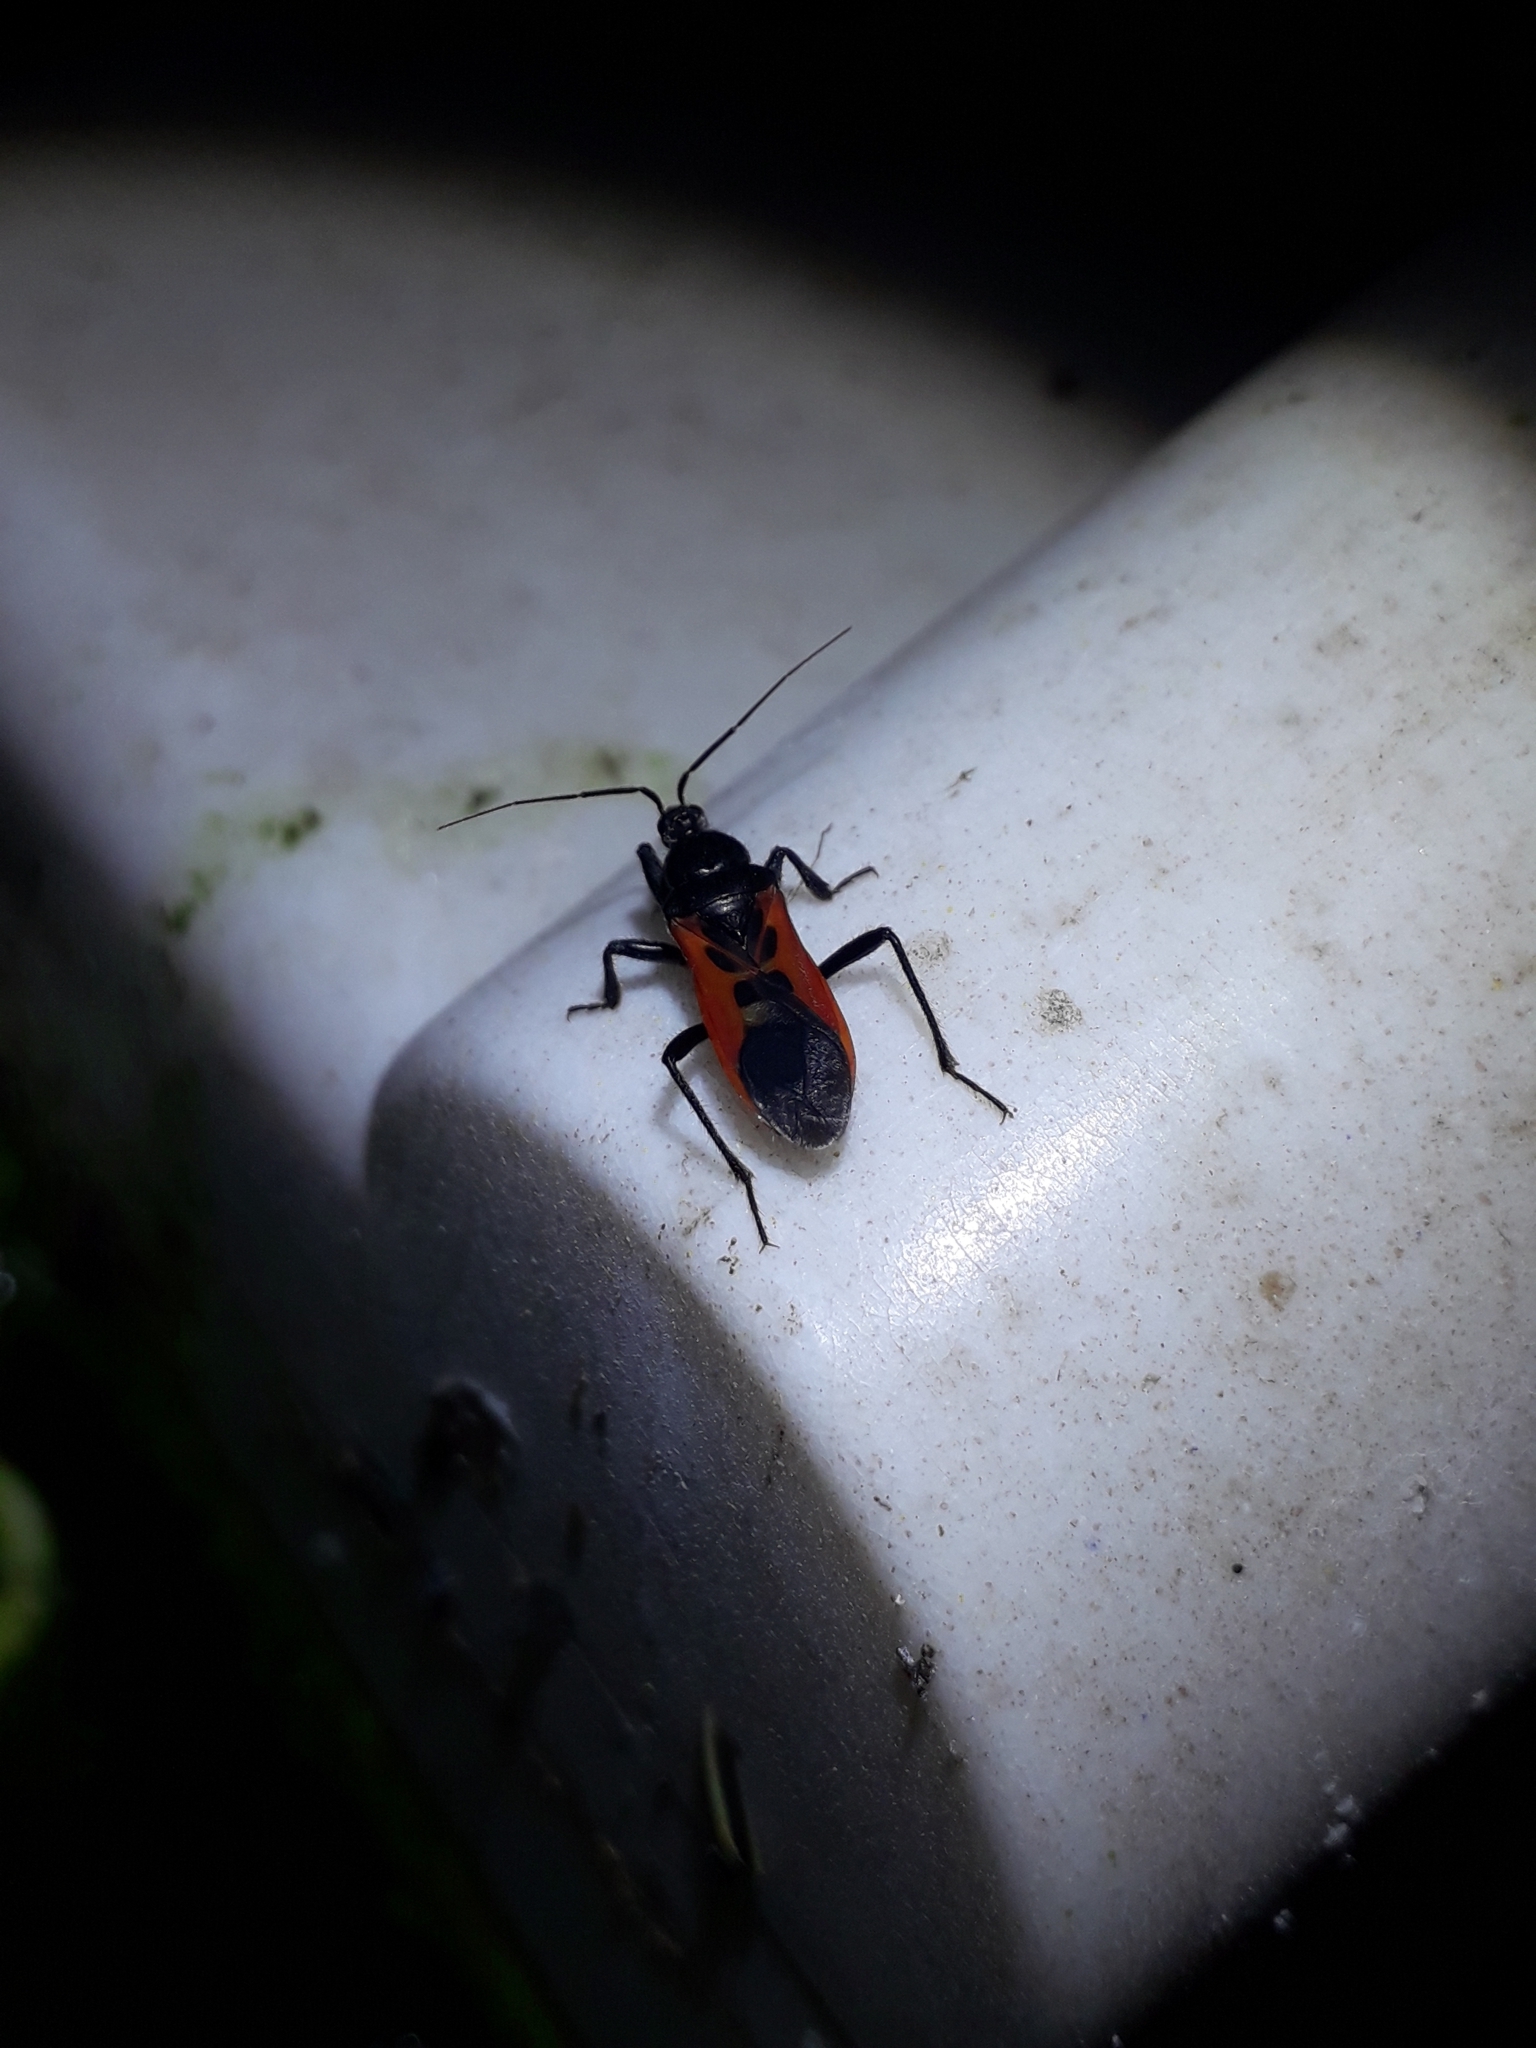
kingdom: Animalia
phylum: Arthropoda
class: Insecta
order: Hemiptera
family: Reduviidae
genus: Peirates
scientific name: Peirates hybridus
